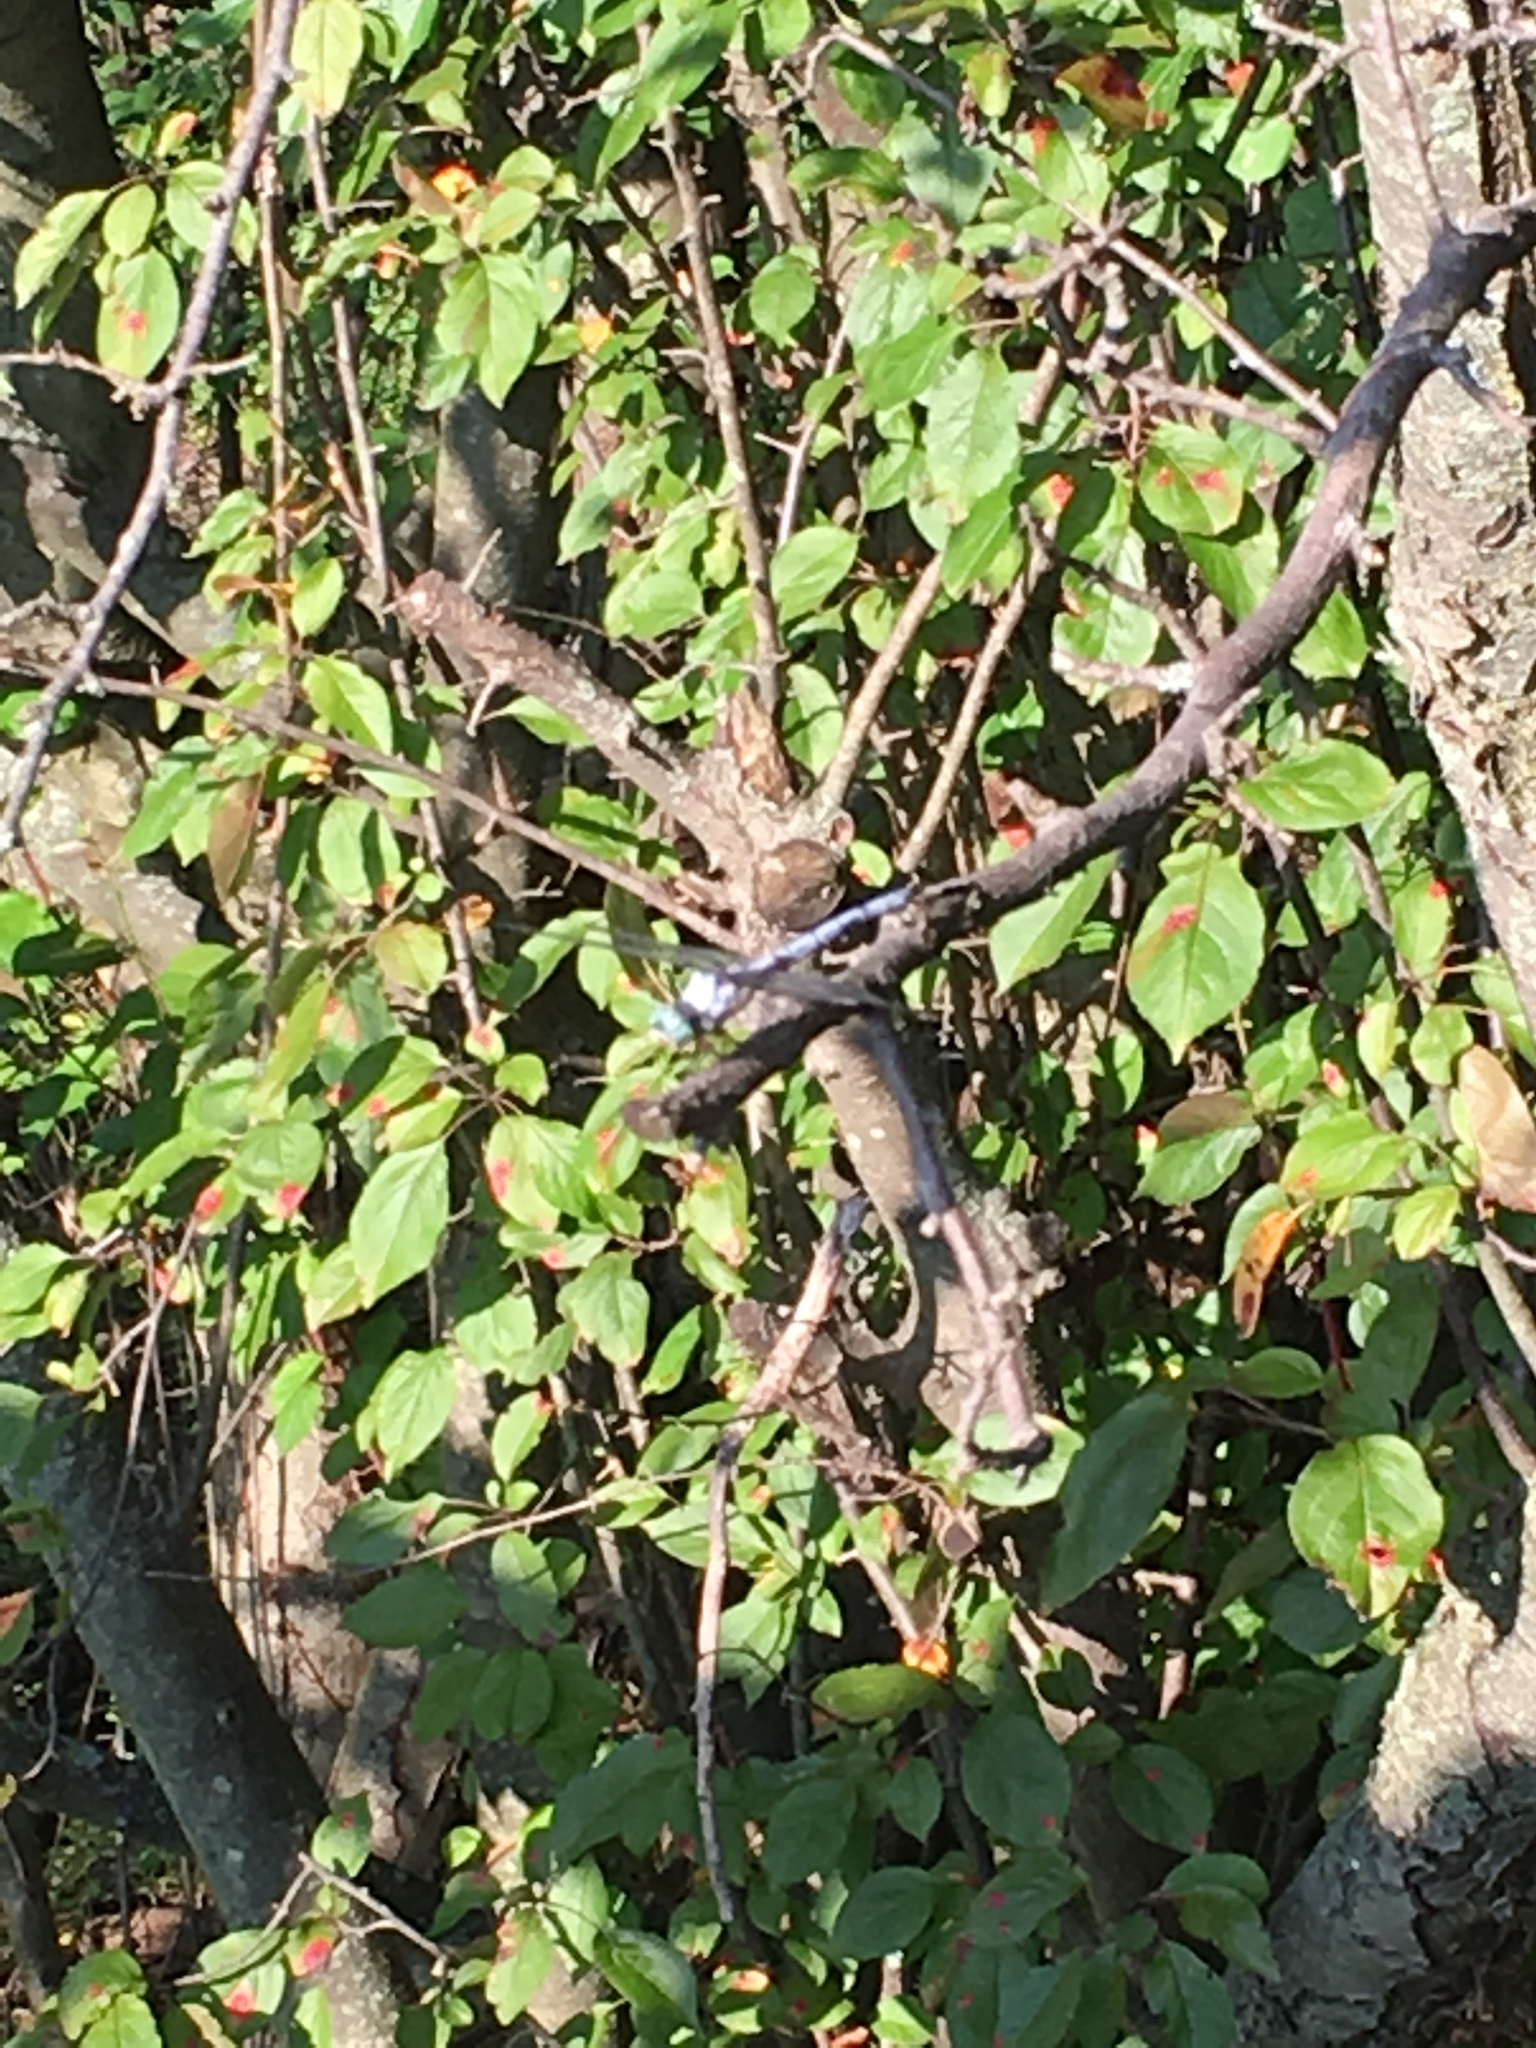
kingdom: Animalia
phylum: Arthropoda
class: Insecta
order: Odonata
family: Libellulidae
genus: Libellula
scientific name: Libellula vibrans
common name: Great blue skimmer
